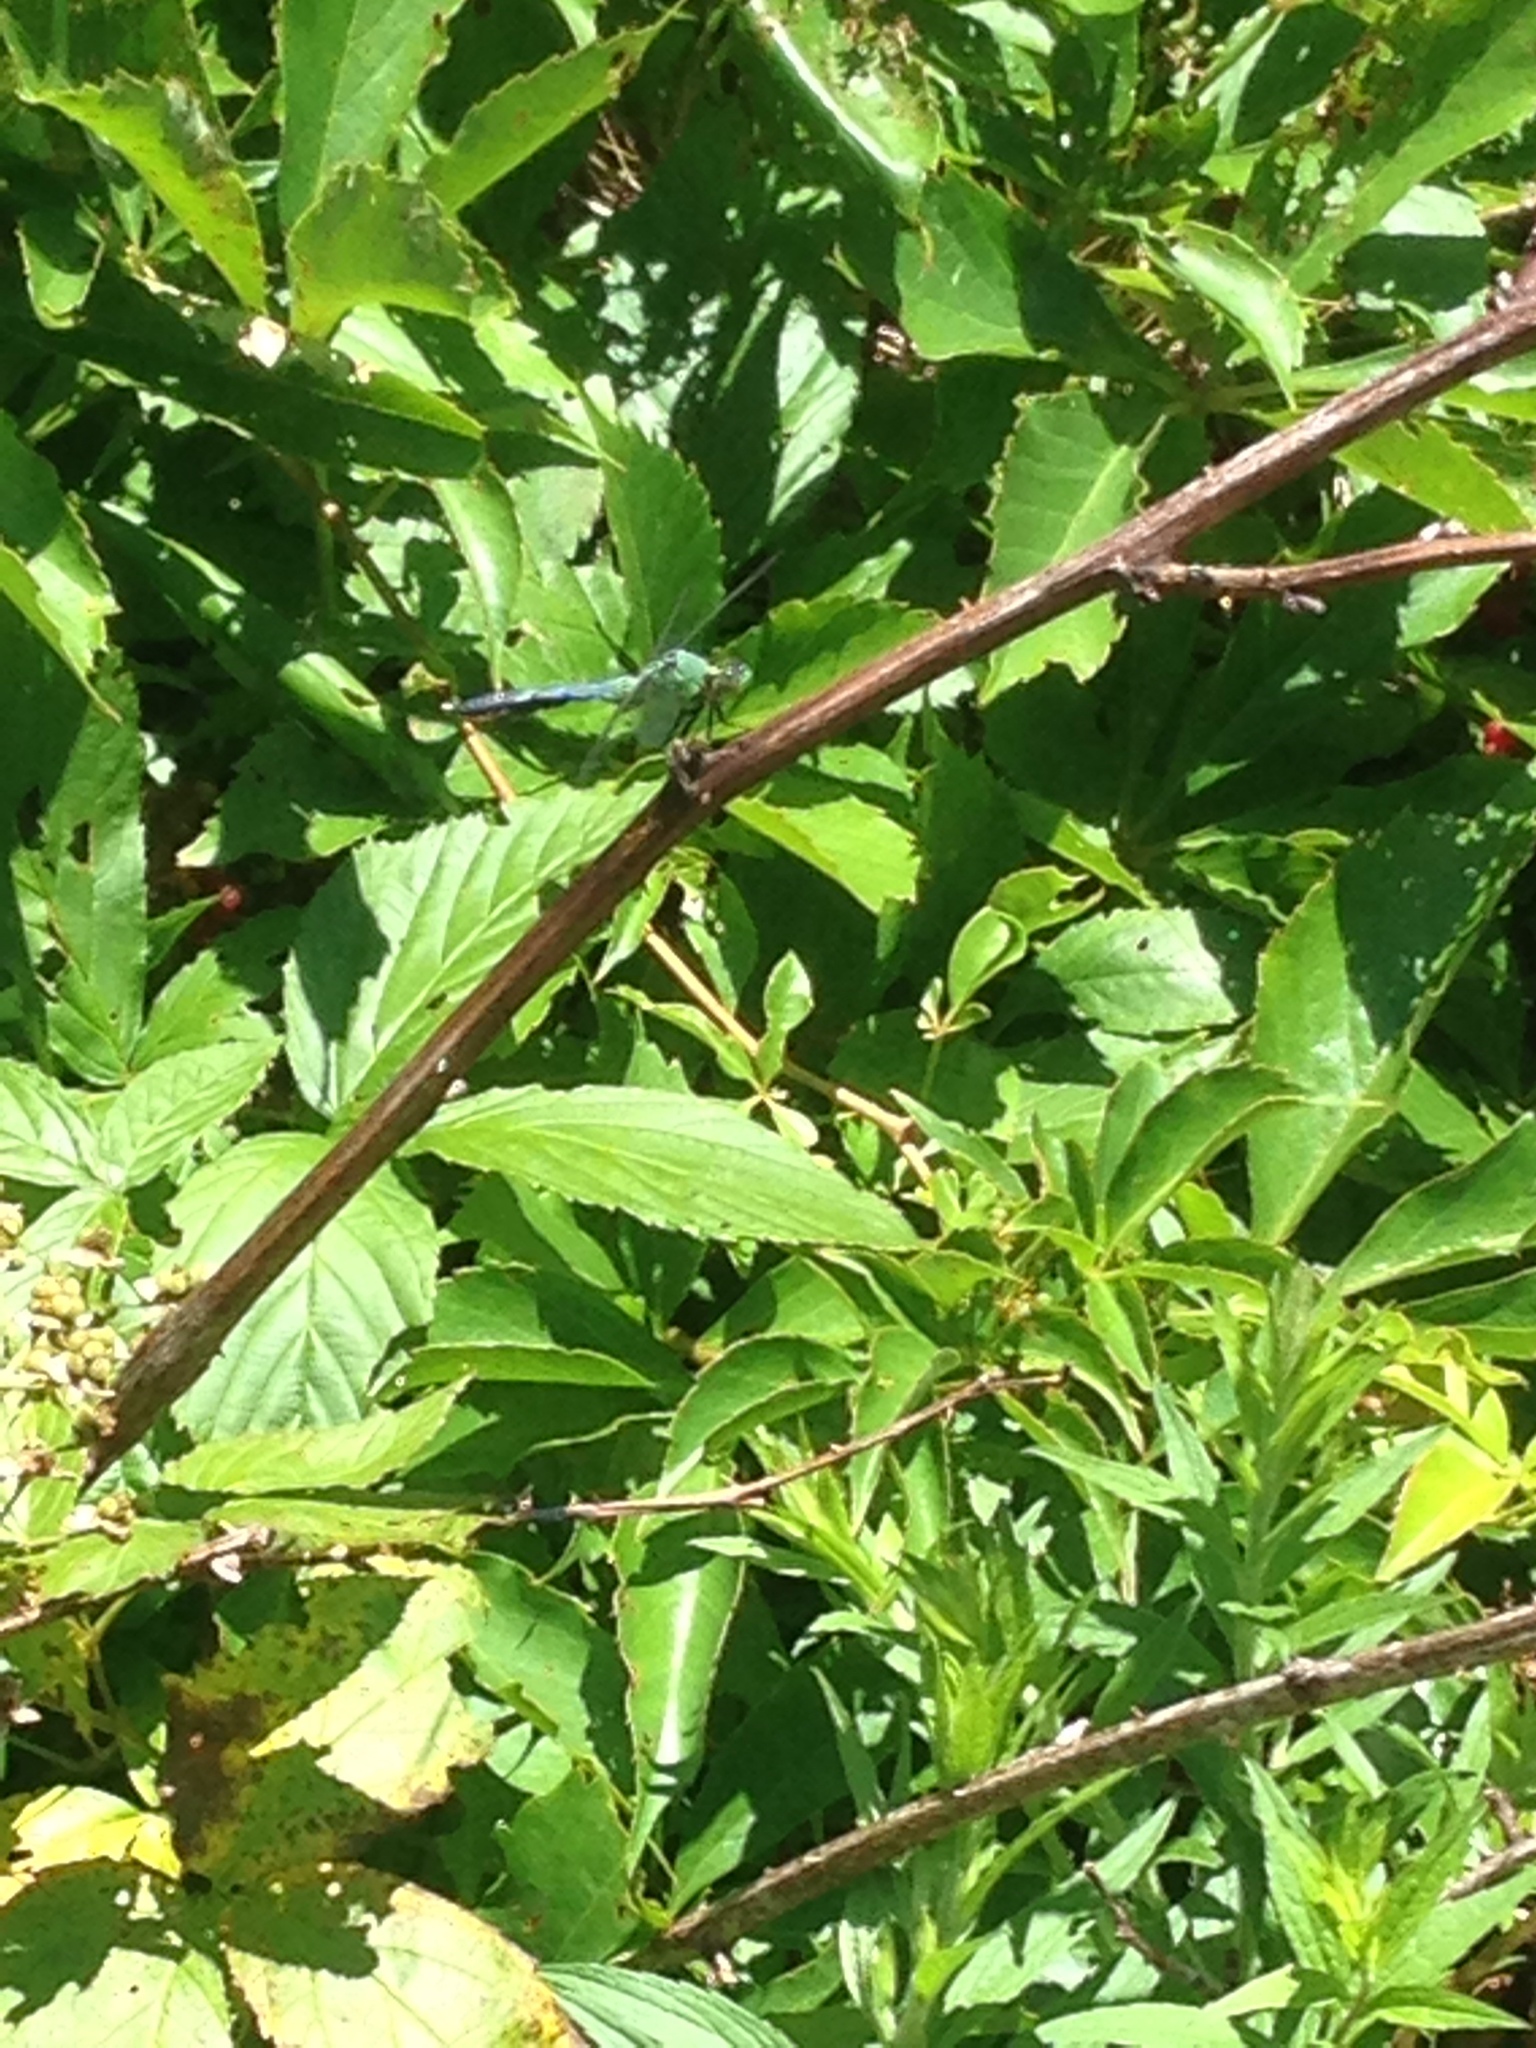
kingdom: Animalia
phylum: Arthropoda
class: Insecta
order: Odonata
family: Libellulidae
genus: Erythemis
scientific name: Erythemis simplicicollis
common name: Eastern pondhawk
